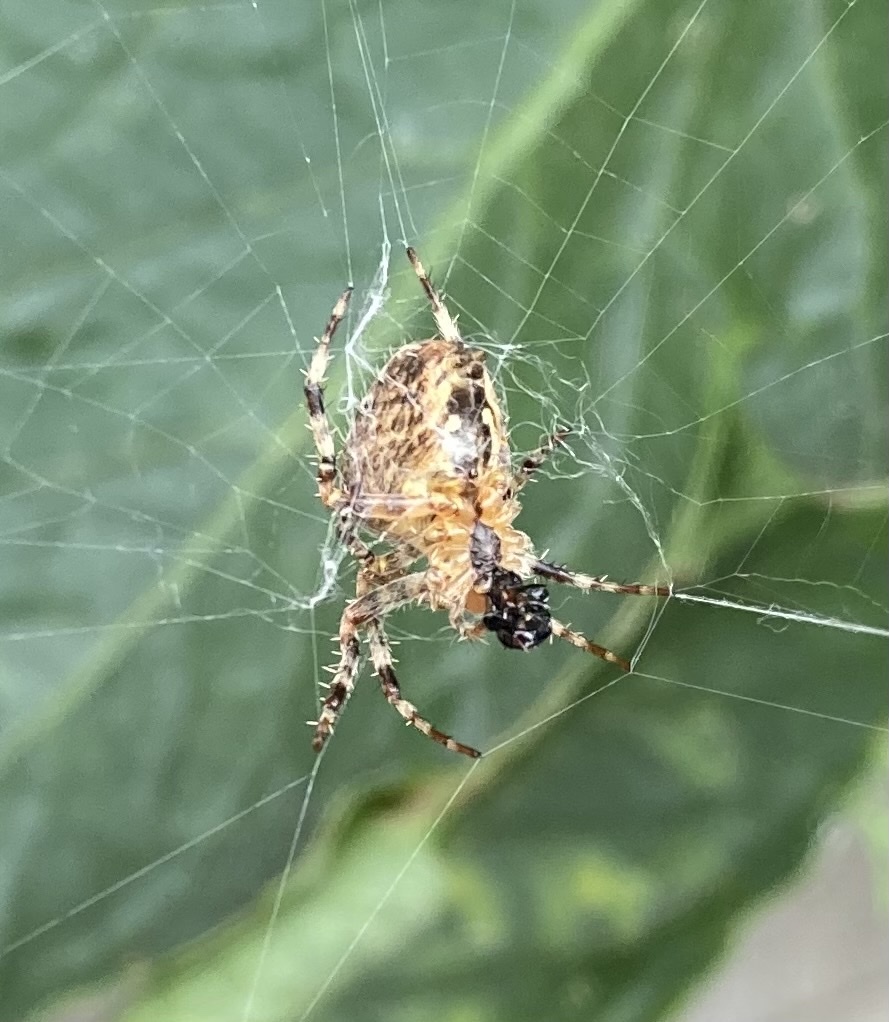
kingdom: Animalia
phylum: Arthropoda
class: Arachnida
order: Araneae
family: Araneidae
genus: Araneus
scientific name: Araneus diadematus
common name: Cross orbweaver
